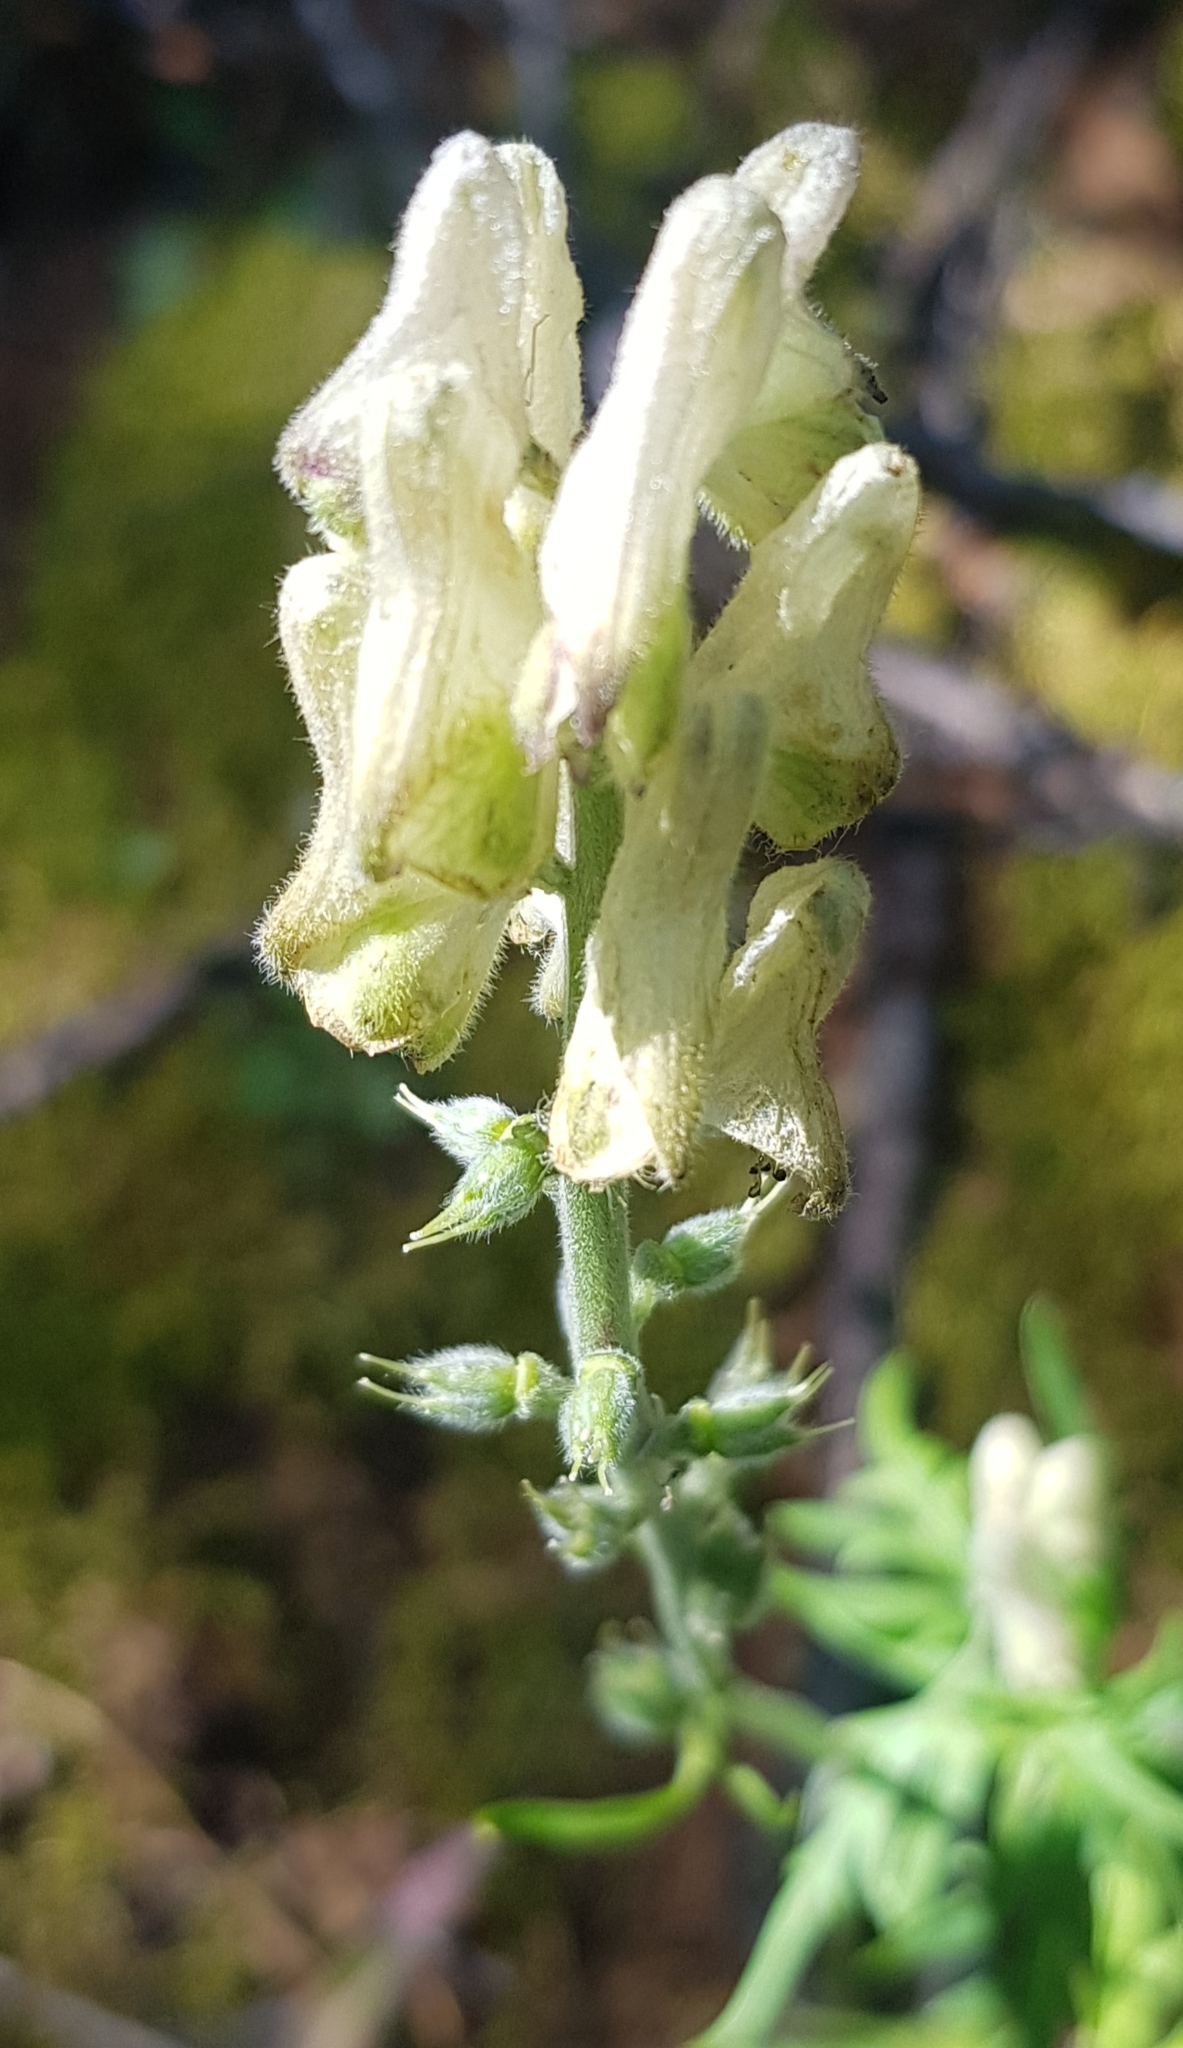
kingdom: Plantae
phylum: Tracheophyta
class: Magnoliopsida
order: Ranunculales
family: Ranunculaceae
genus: Aconitum
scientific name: Aconitum barbatum
